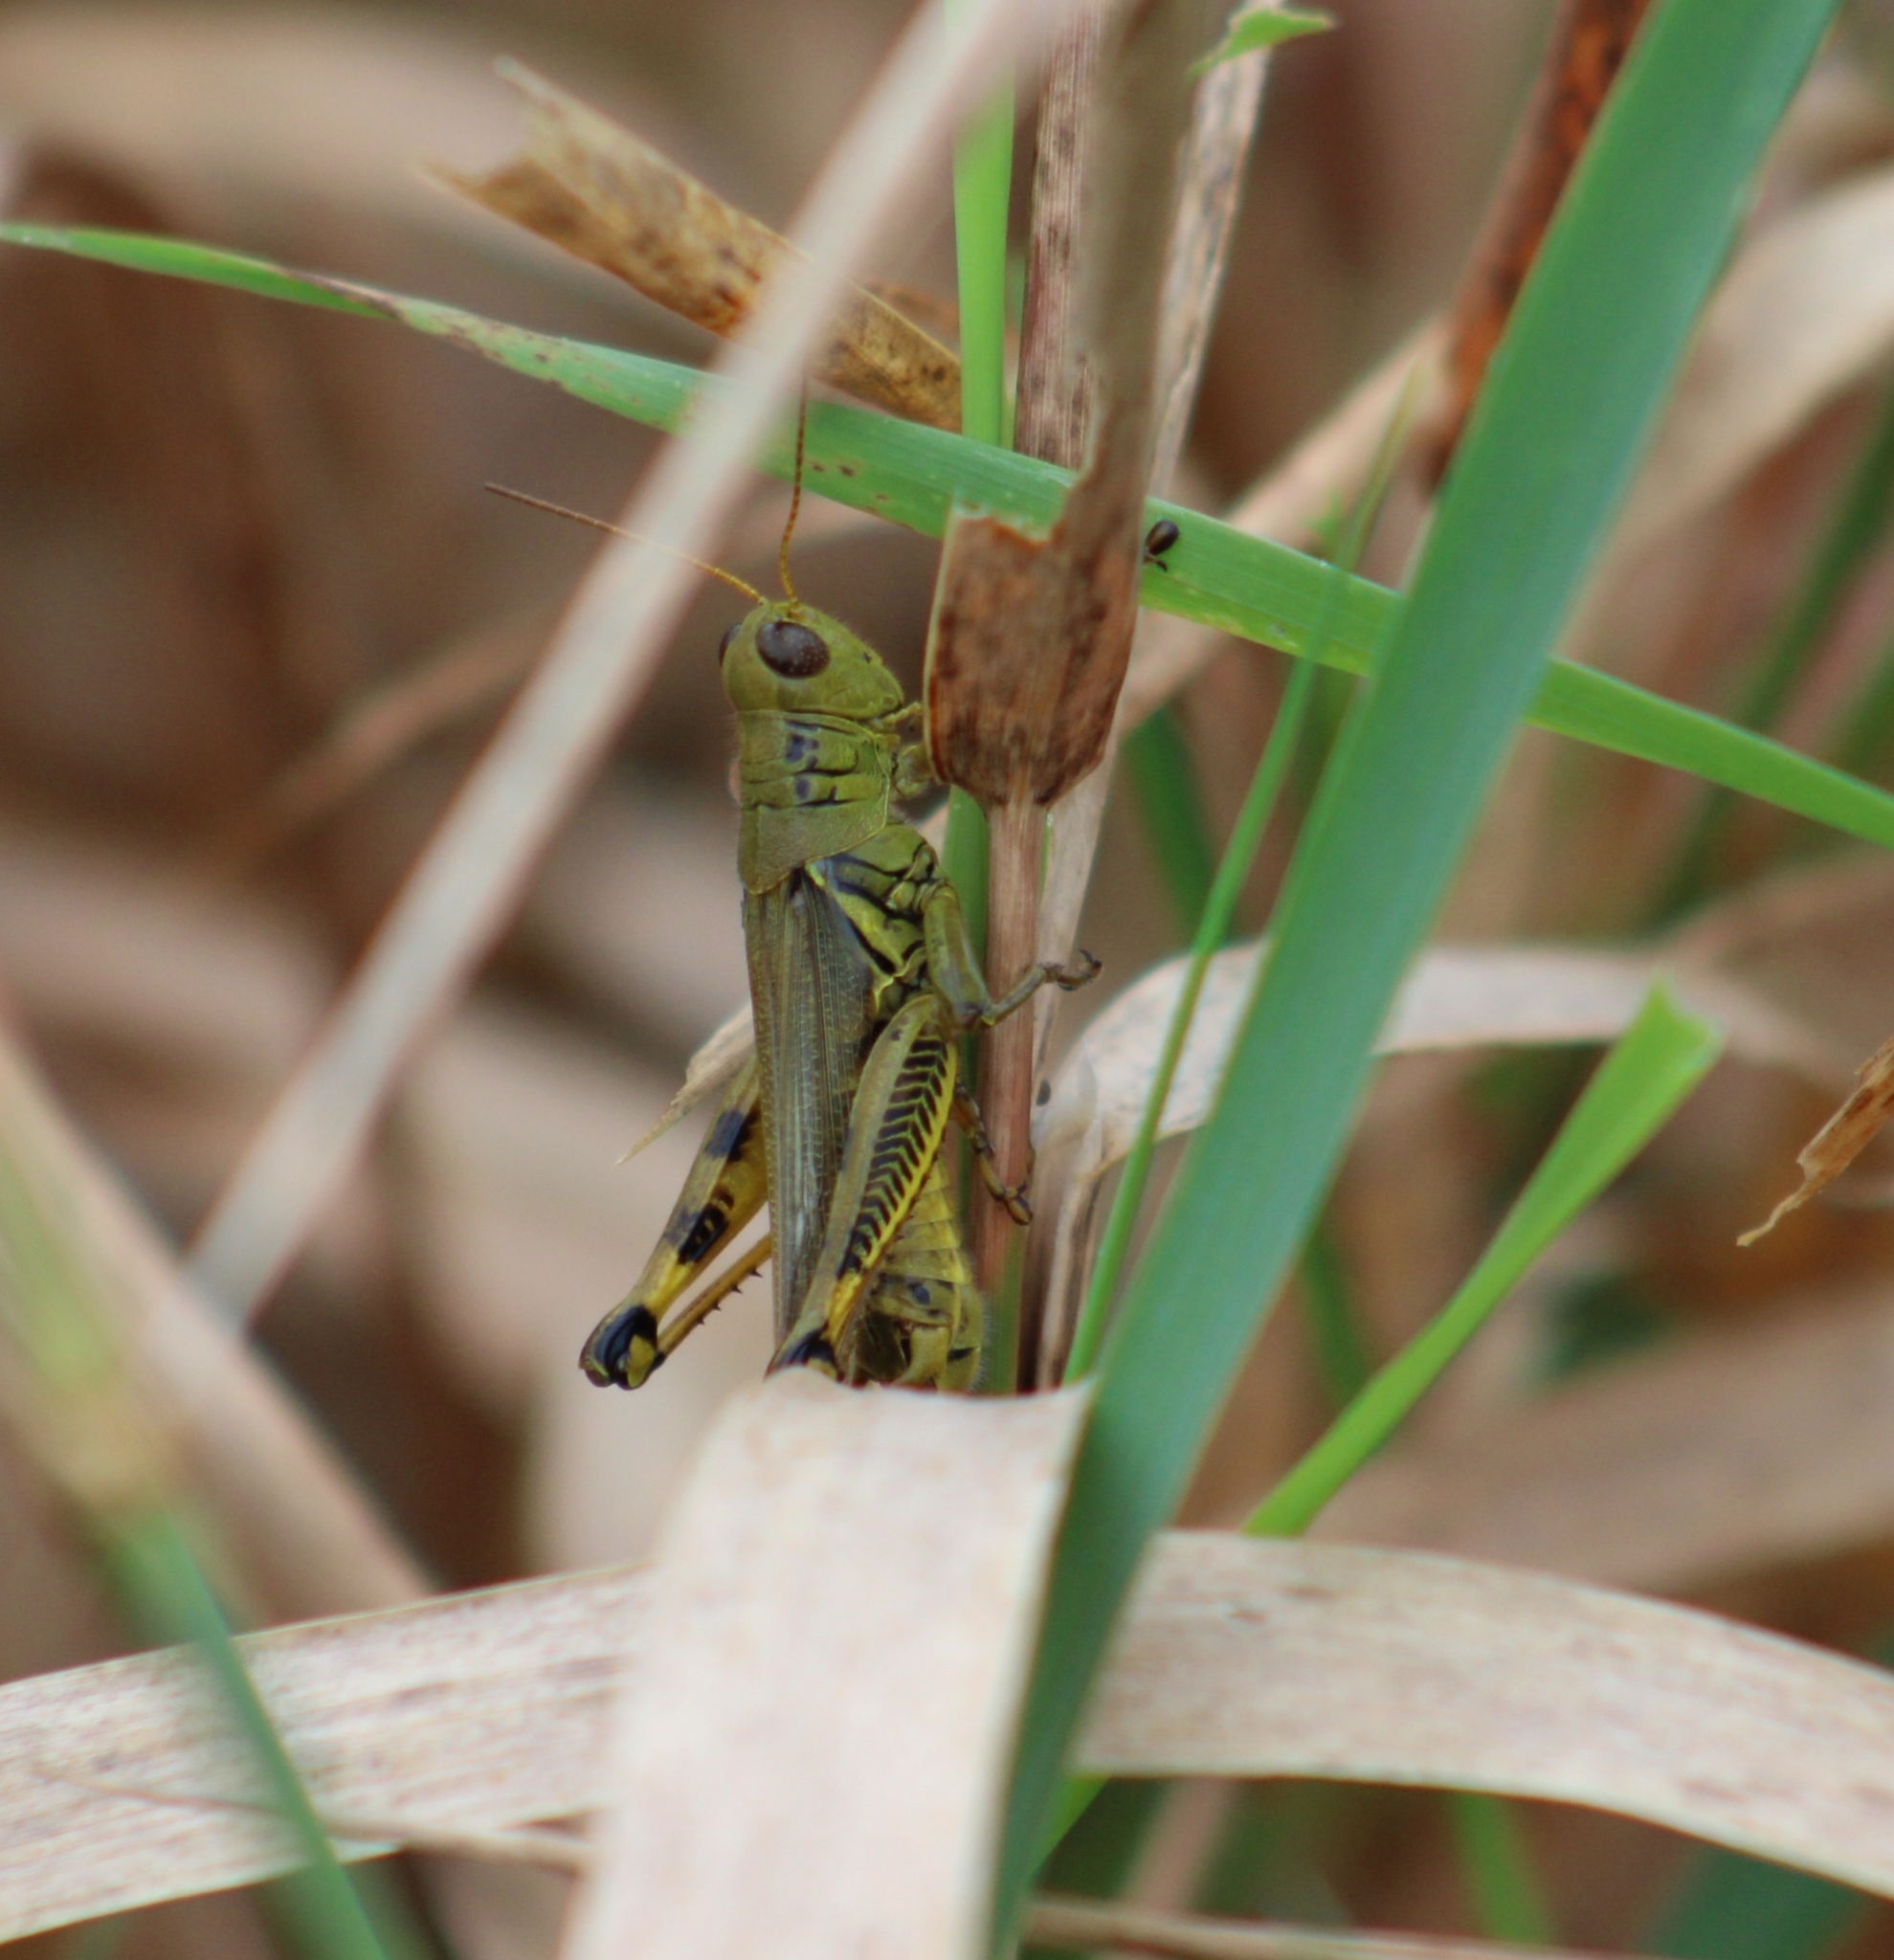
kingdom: Animalia
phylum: Arthropoda
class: Insecta
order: Orthoptera
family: Acrididae
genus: Melanoplus
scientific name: Melanoplus differentialis
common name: Differential grasshopper
